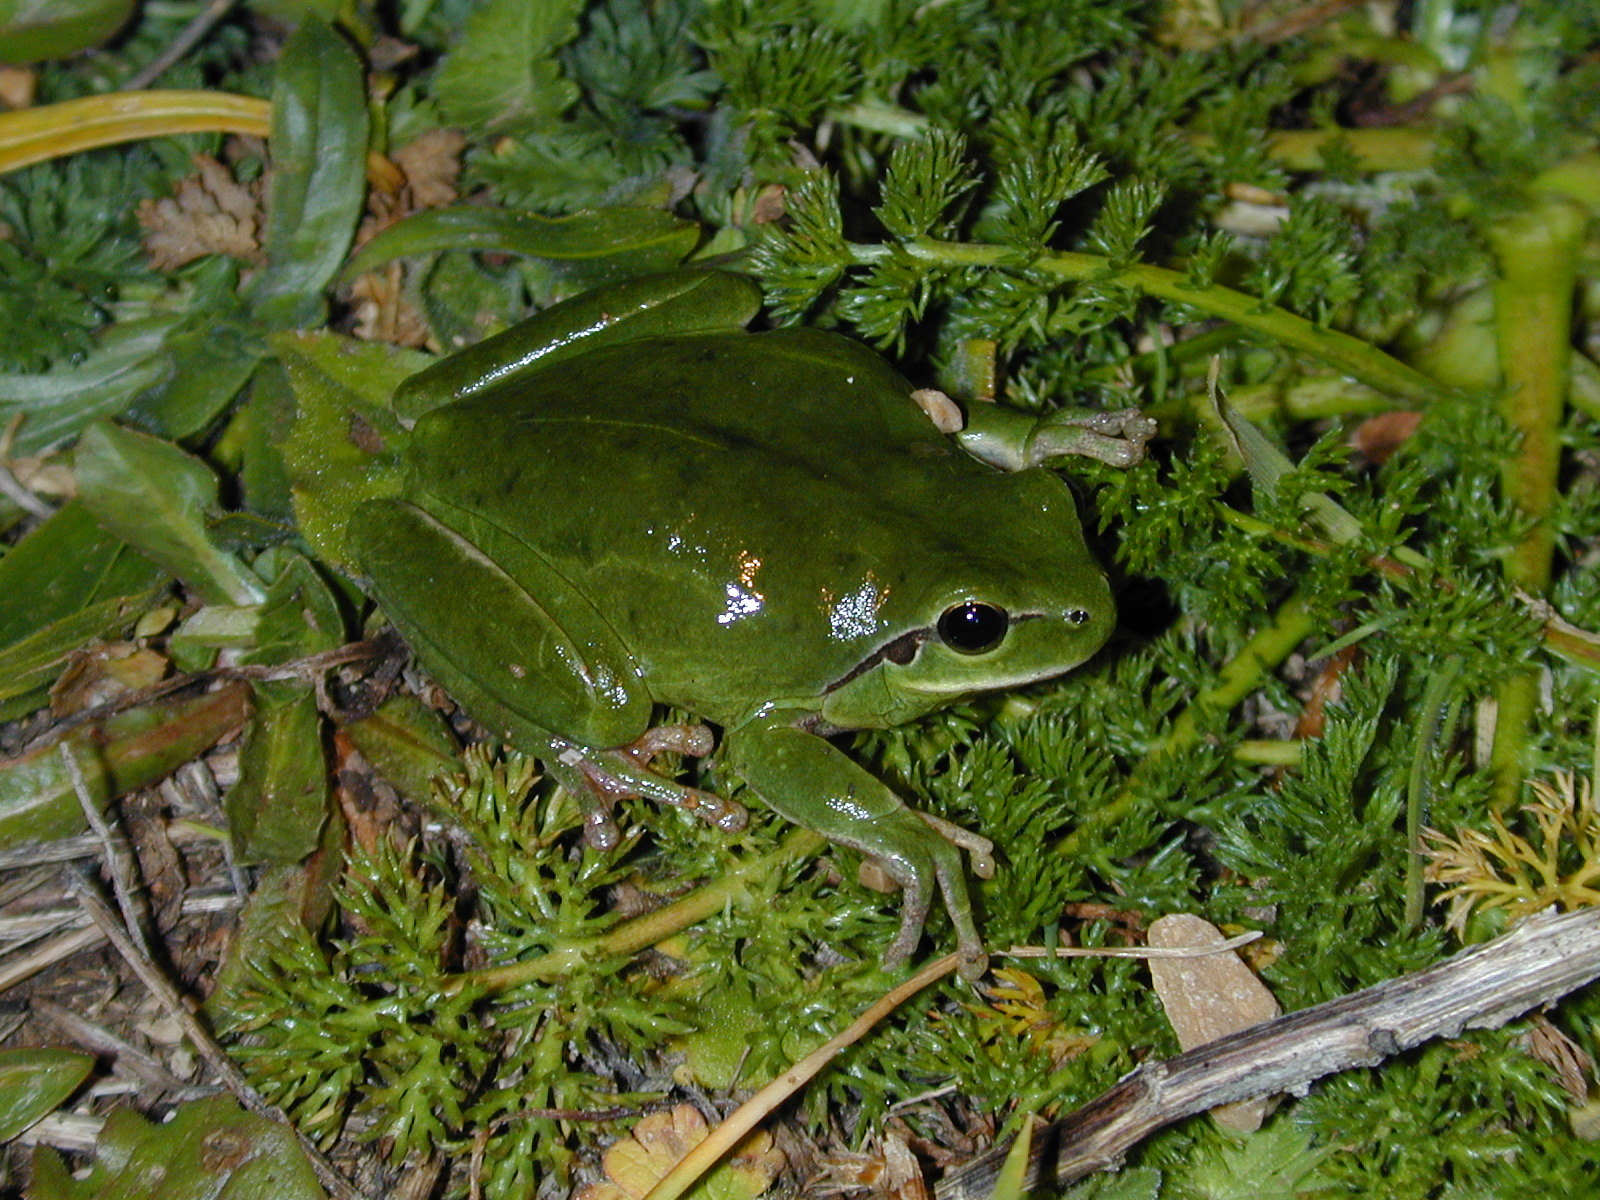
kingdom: Animalia
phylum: Chordata
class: Amphibia
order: Anura
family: Hylidae
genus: Hyla
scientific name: Hyla meridionalis
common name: Stripeless tree frog
